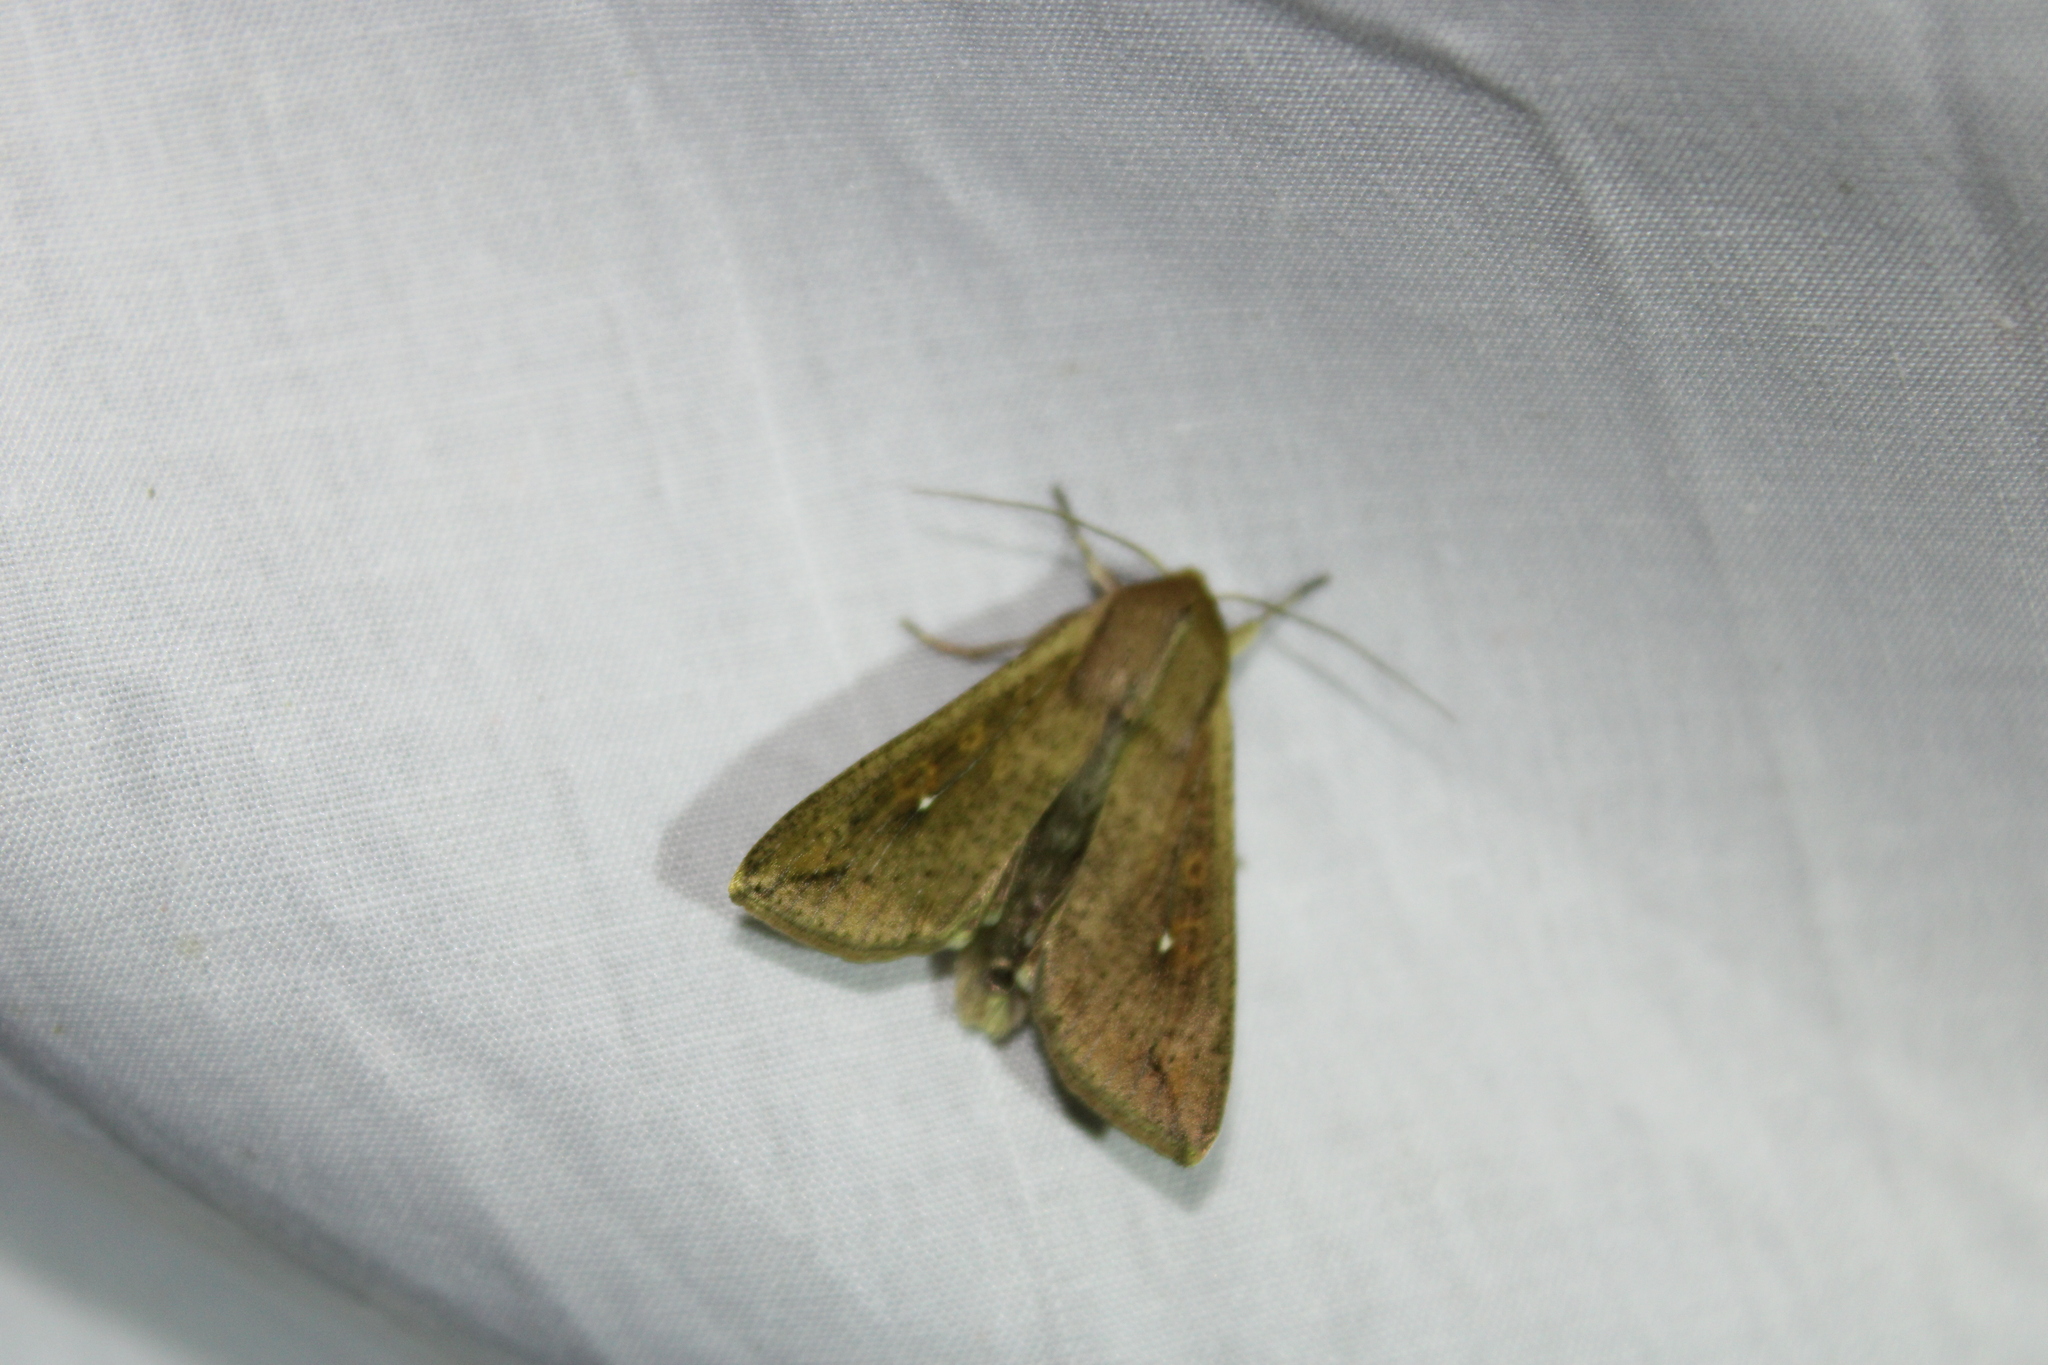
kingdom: Animalia
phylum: Arthropoda
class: Insecta
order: Lepidoptera
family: Noctuidae
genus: Mythimna
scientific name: Mythimna unipuncta
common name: White-speck
